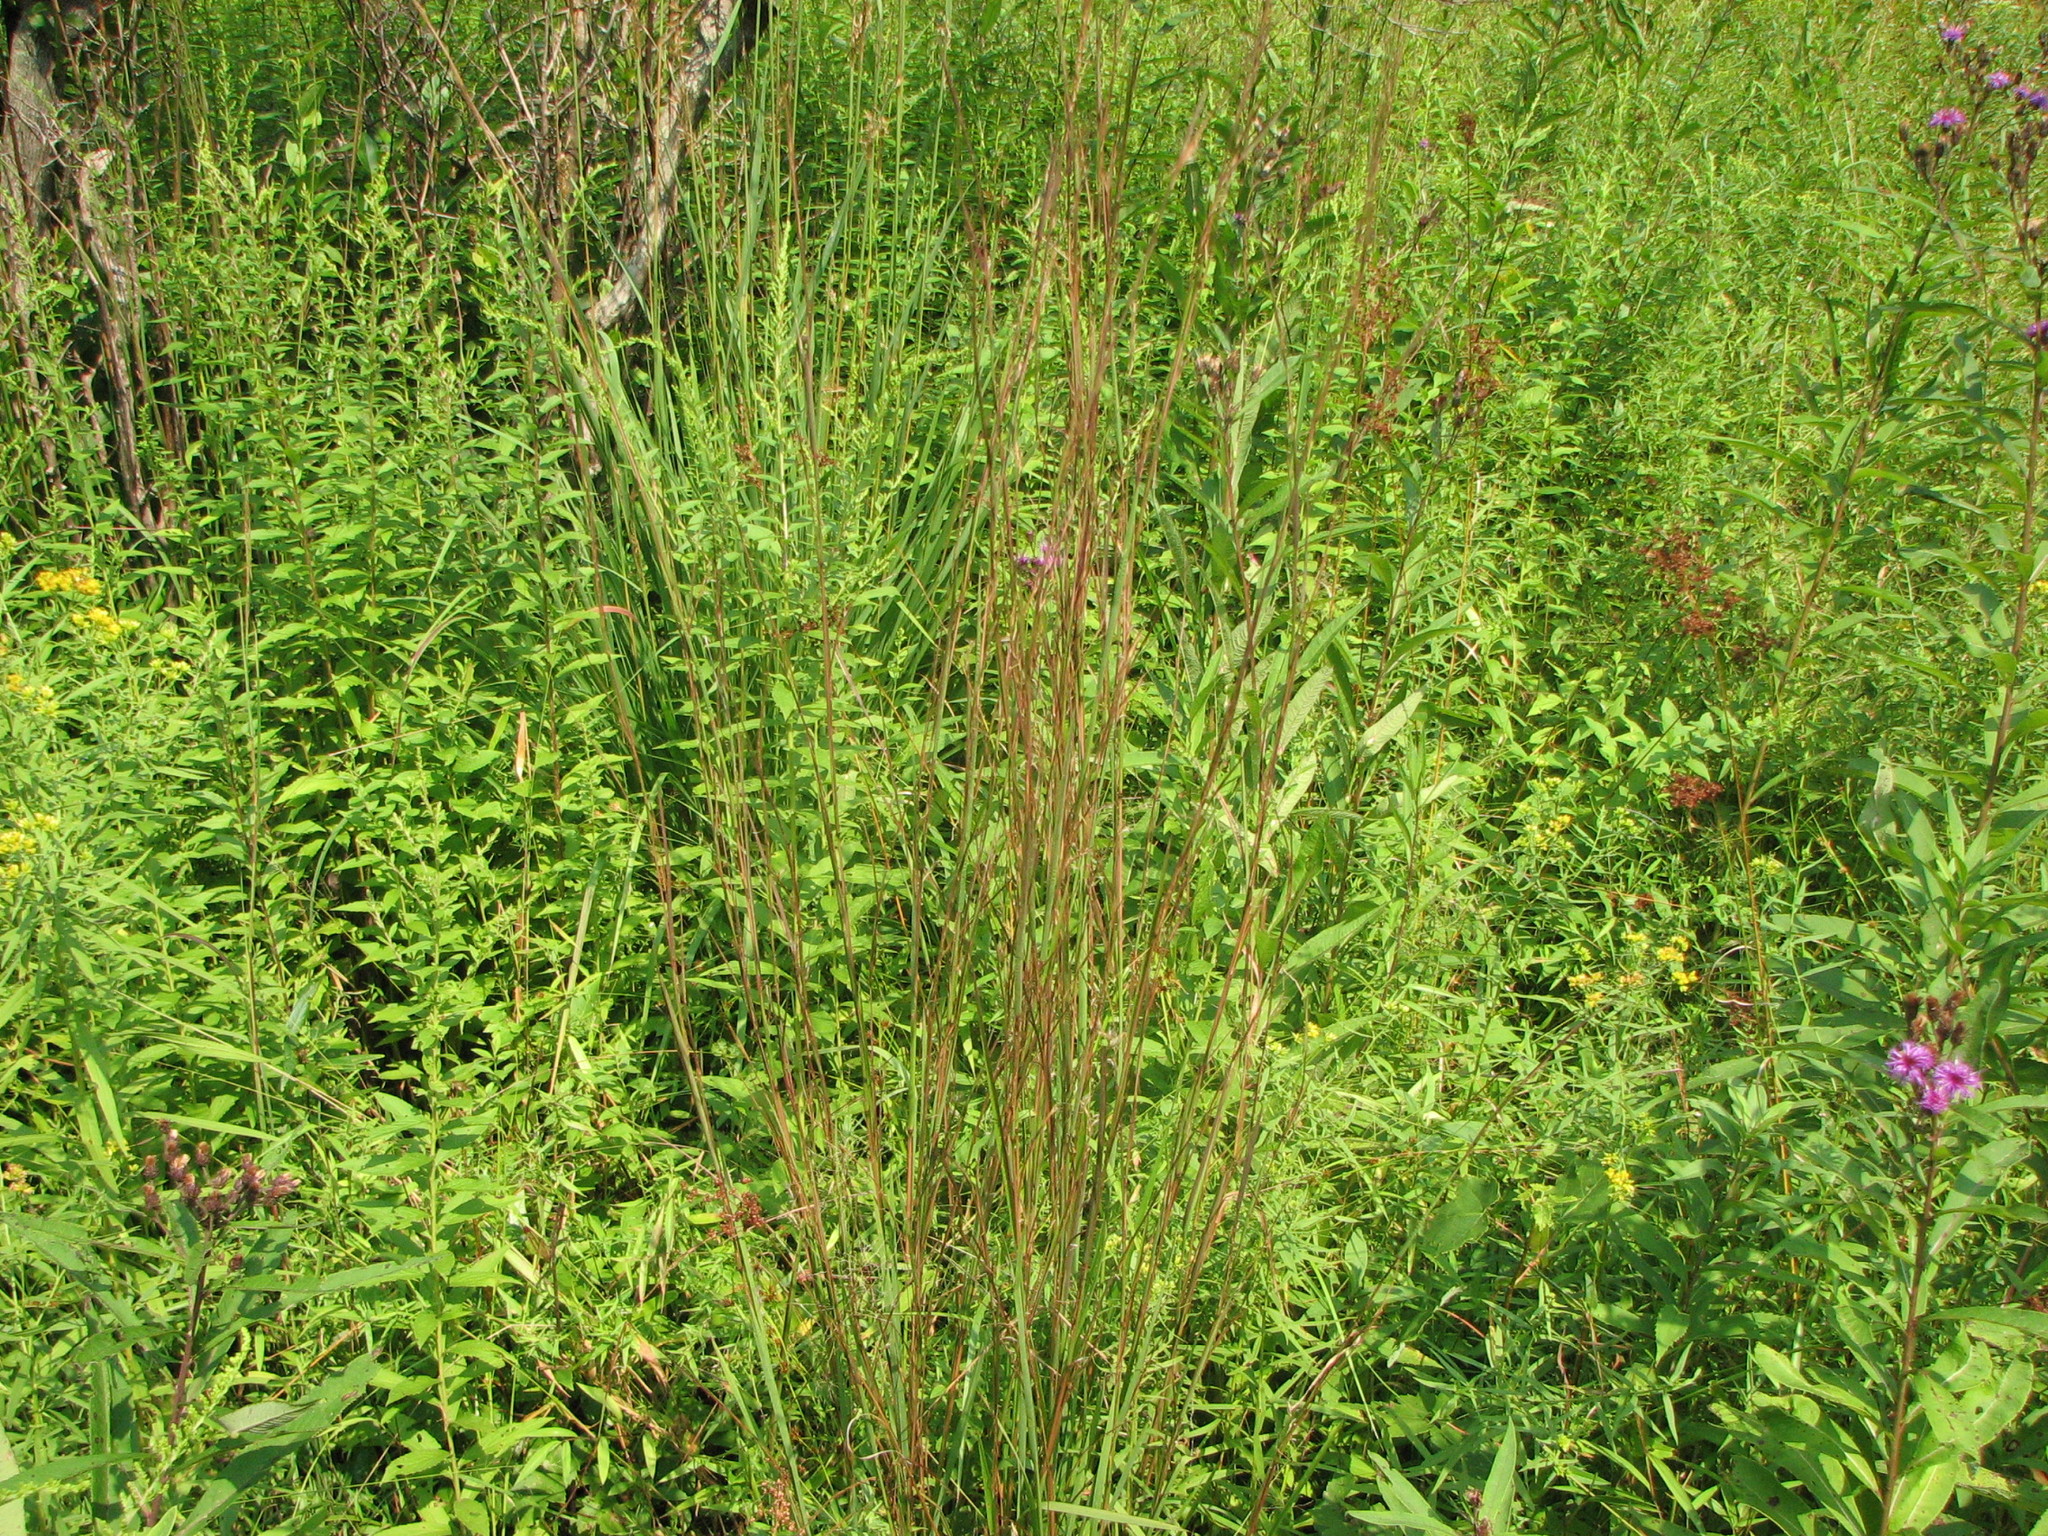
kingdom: Plantae
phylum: Tracheophyta
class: Liliopsida
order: Poales
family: Poaceae
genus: Schizachyrium
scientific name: Schizachyrium scoparium
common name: Little bluestem
